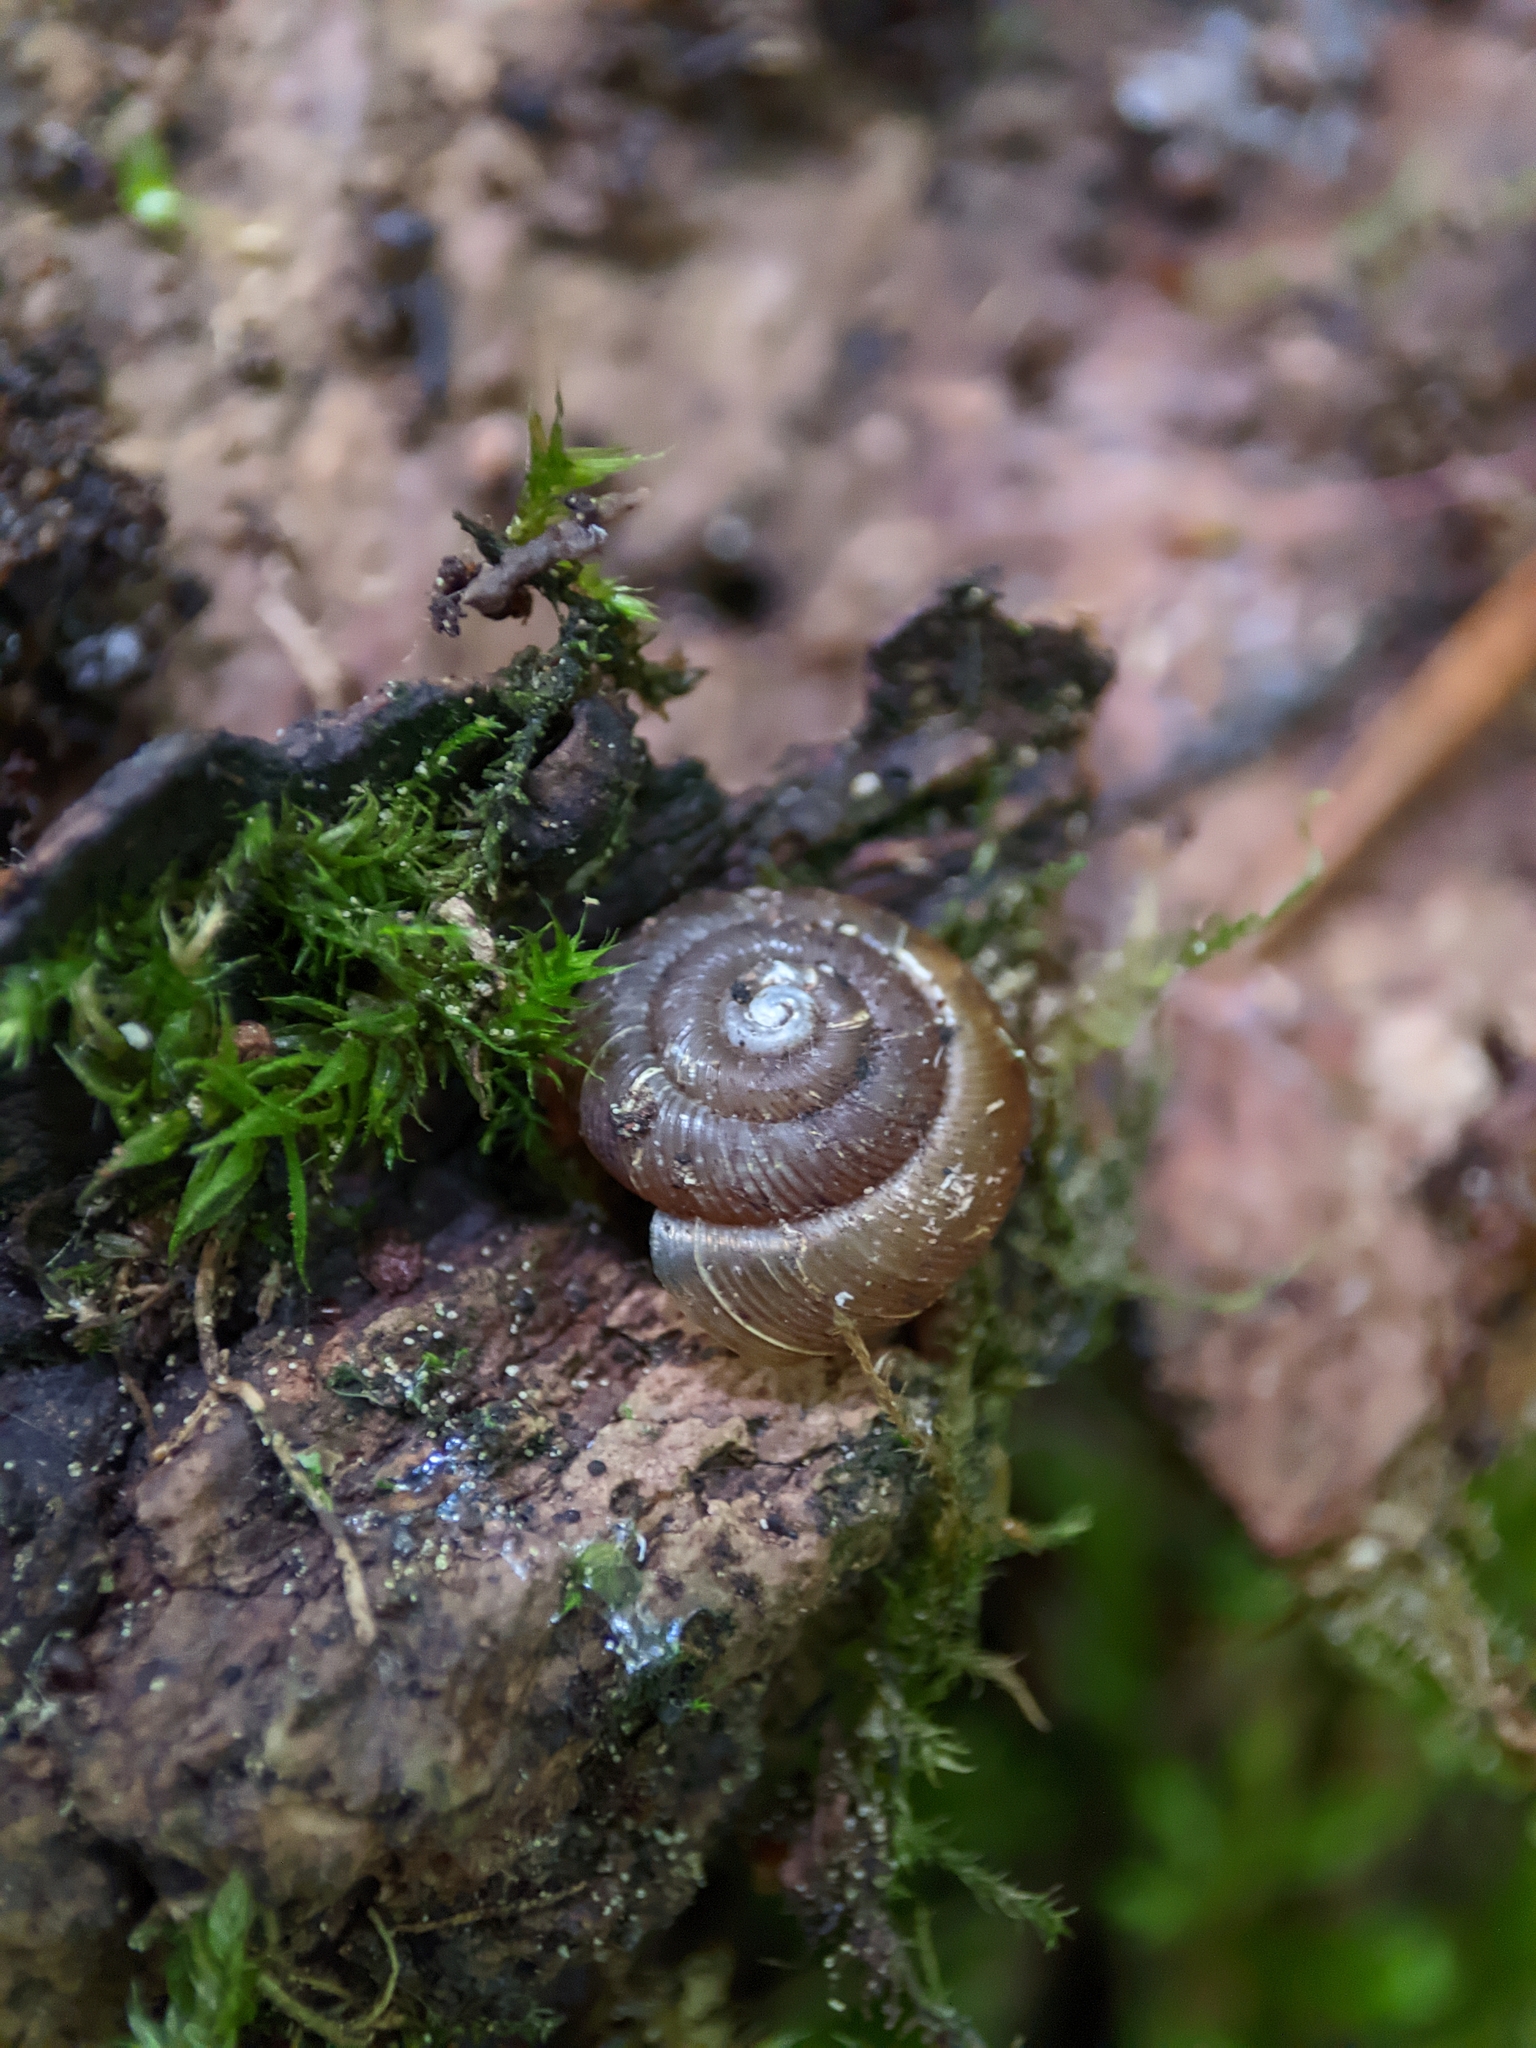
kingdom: Animalia
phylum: Mollusca
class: Gastropoda
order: Stylommatophora
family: Discidae
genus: Discus
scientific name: Discus ruderatus
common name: Brown disc snail
